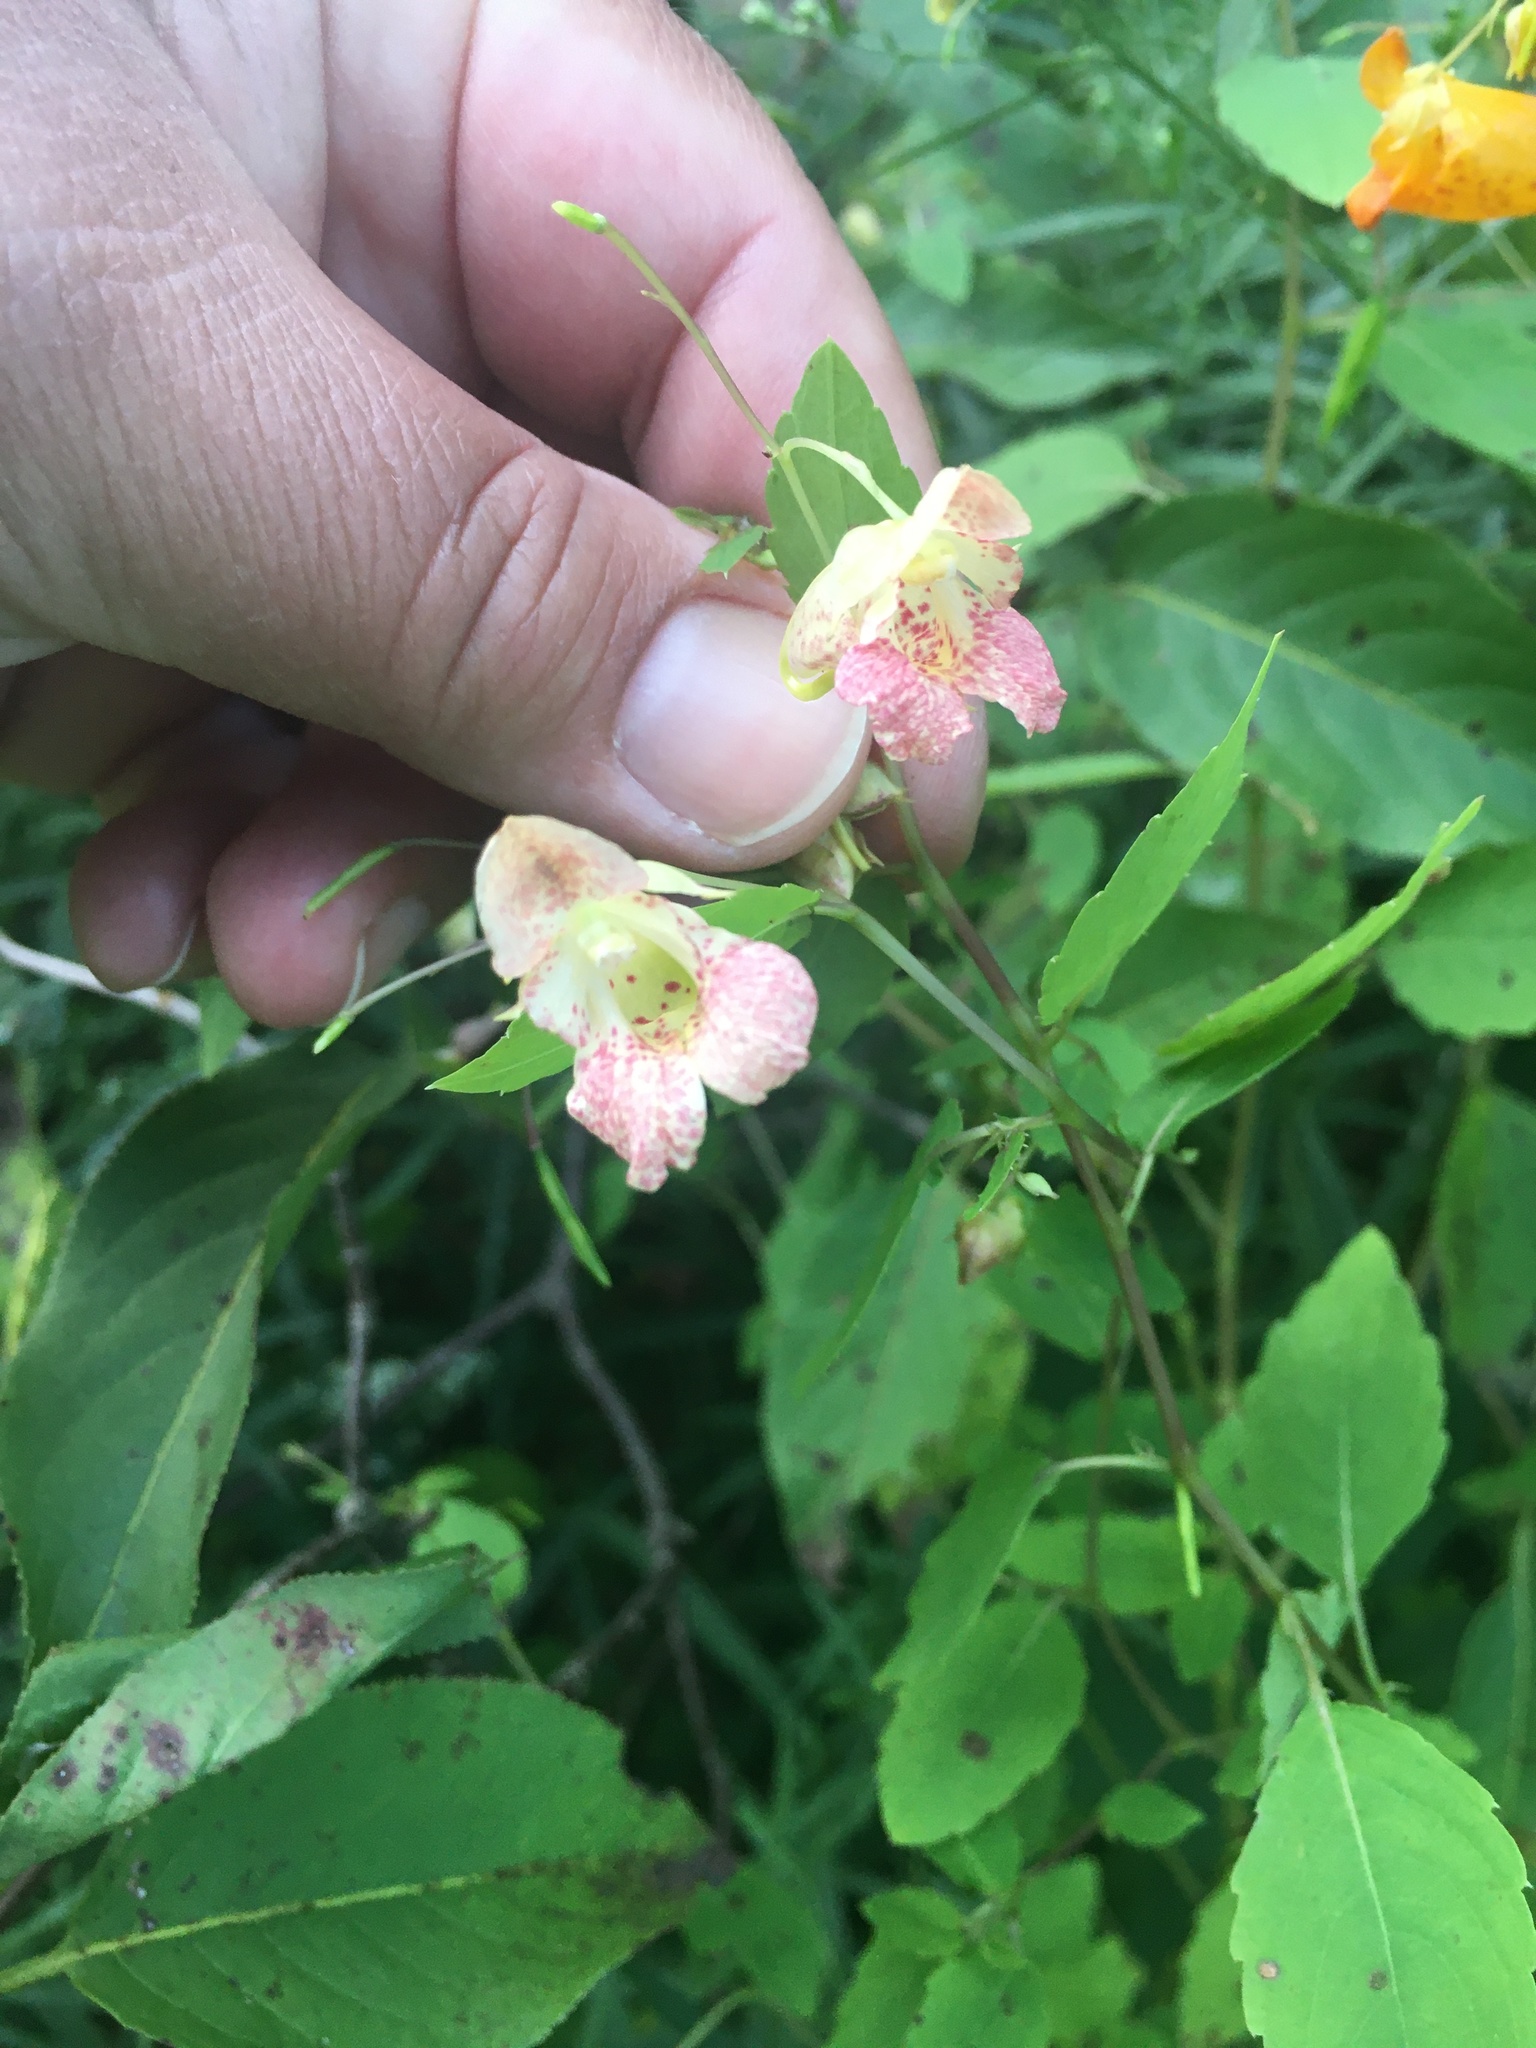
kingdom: Plantae
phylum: Tracheophyta
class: Magnoliopsida
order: Ericales
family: Balsaminaceae
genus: Impatiens
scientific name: Impatiens capensis
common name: Orange balsam
